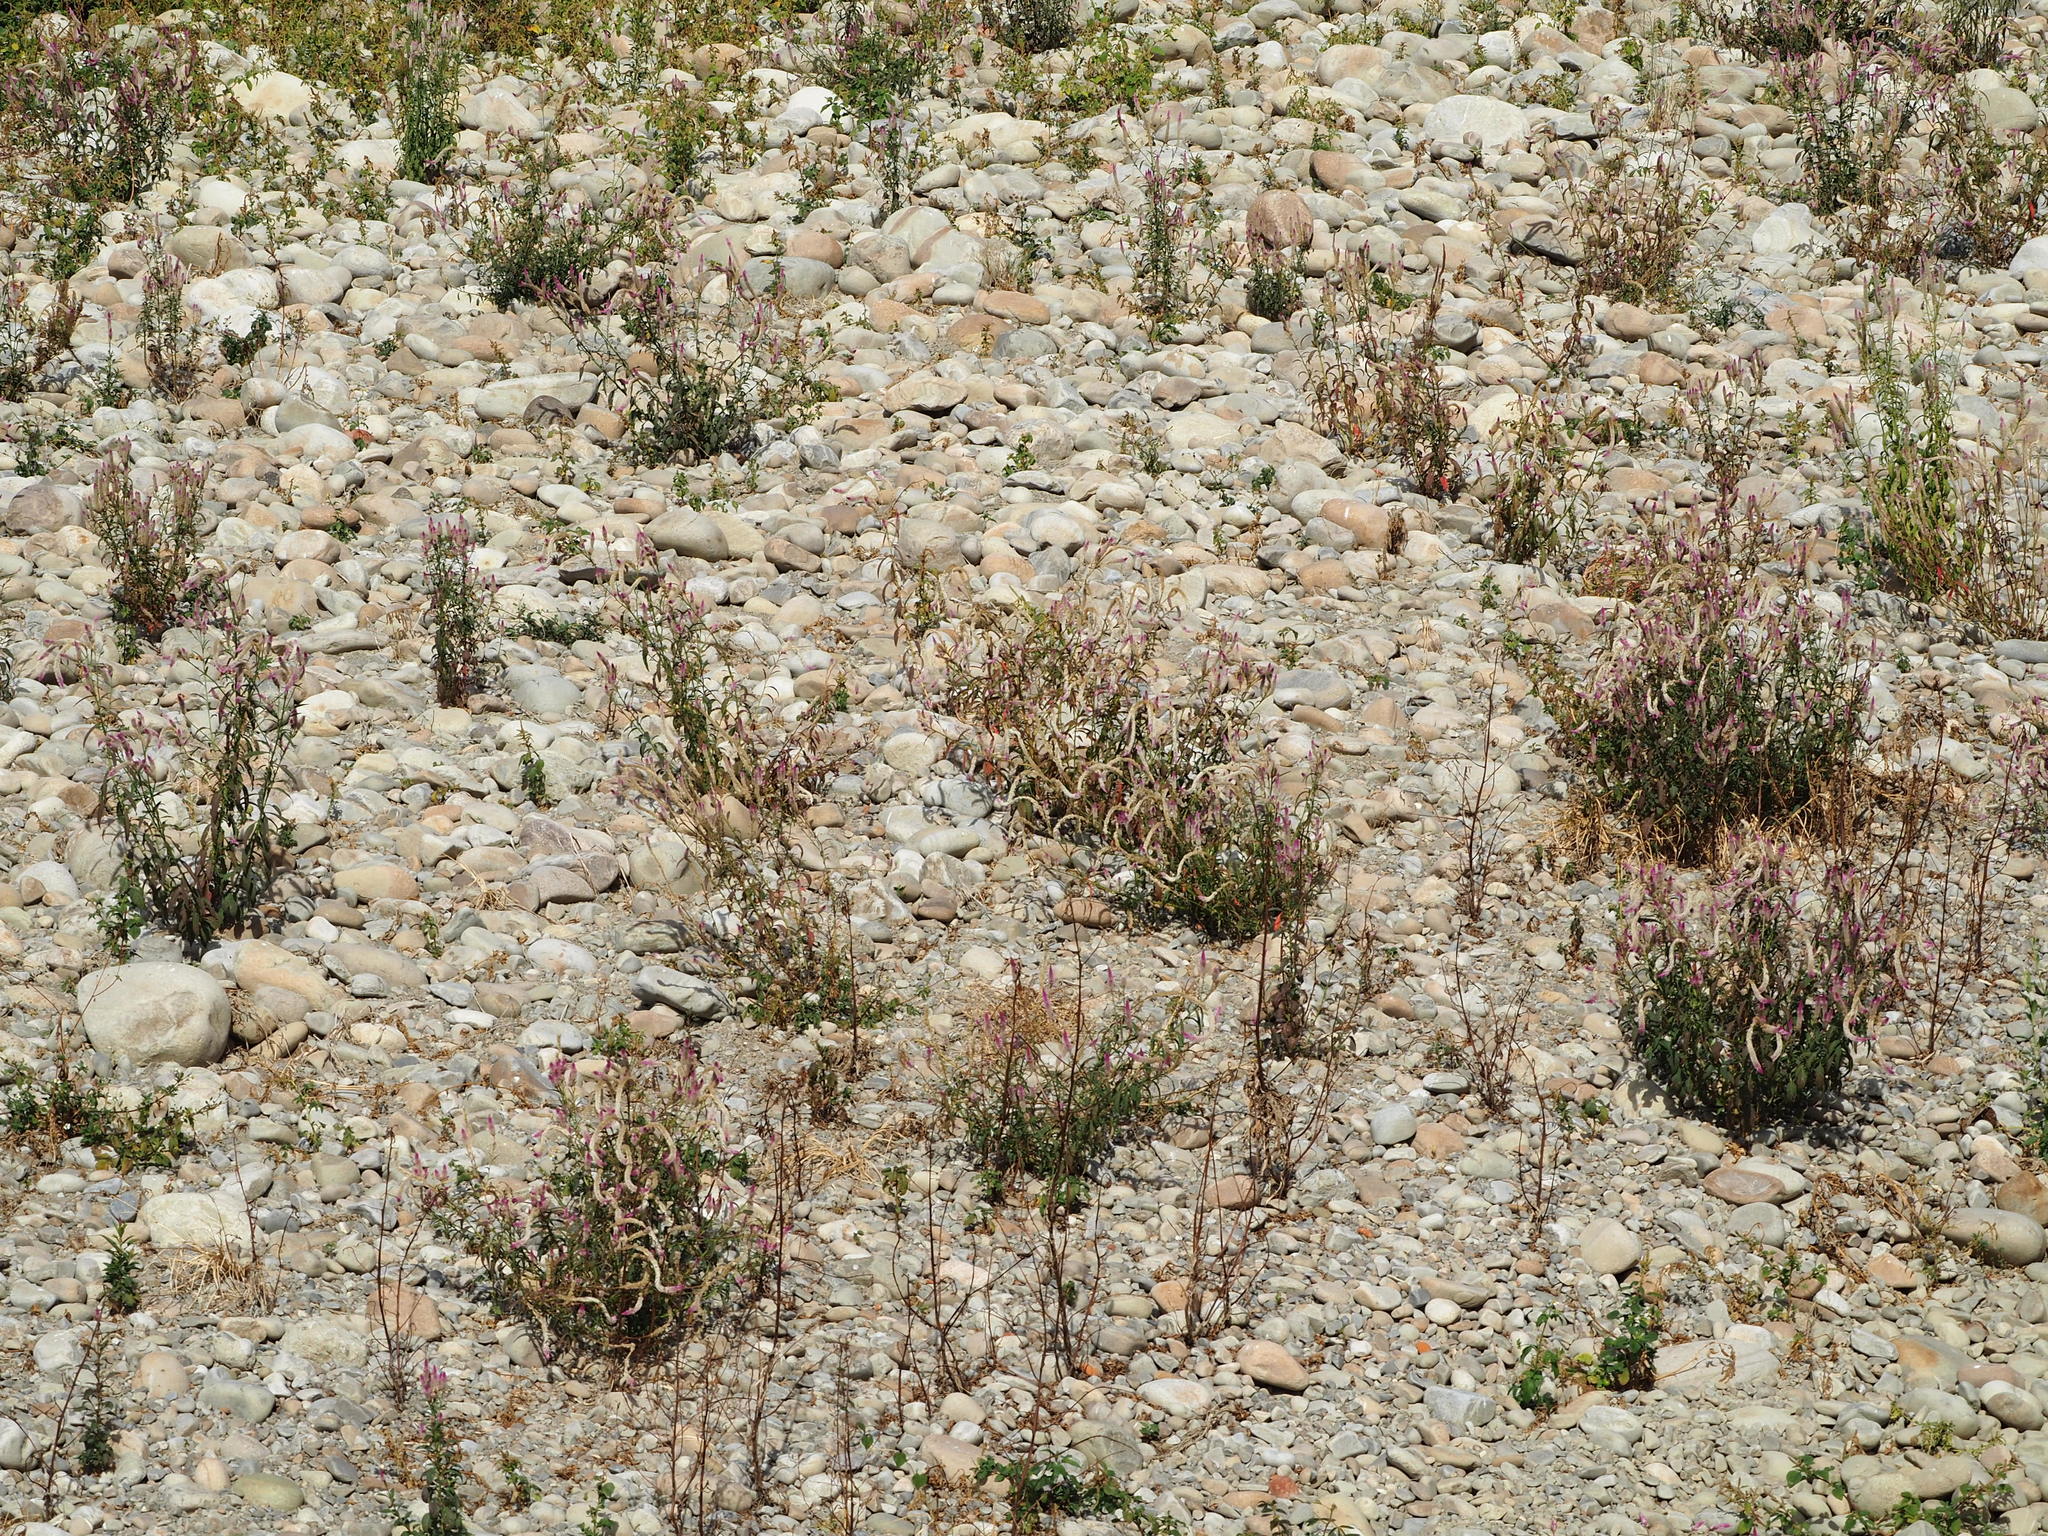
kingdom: Plantae
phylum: Tracheophyta
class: Magnoliopsida
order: Caryophyllales
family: Amaranthaceae
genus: Celosia
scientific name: Celosia argentea
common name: Feather cockscomb
